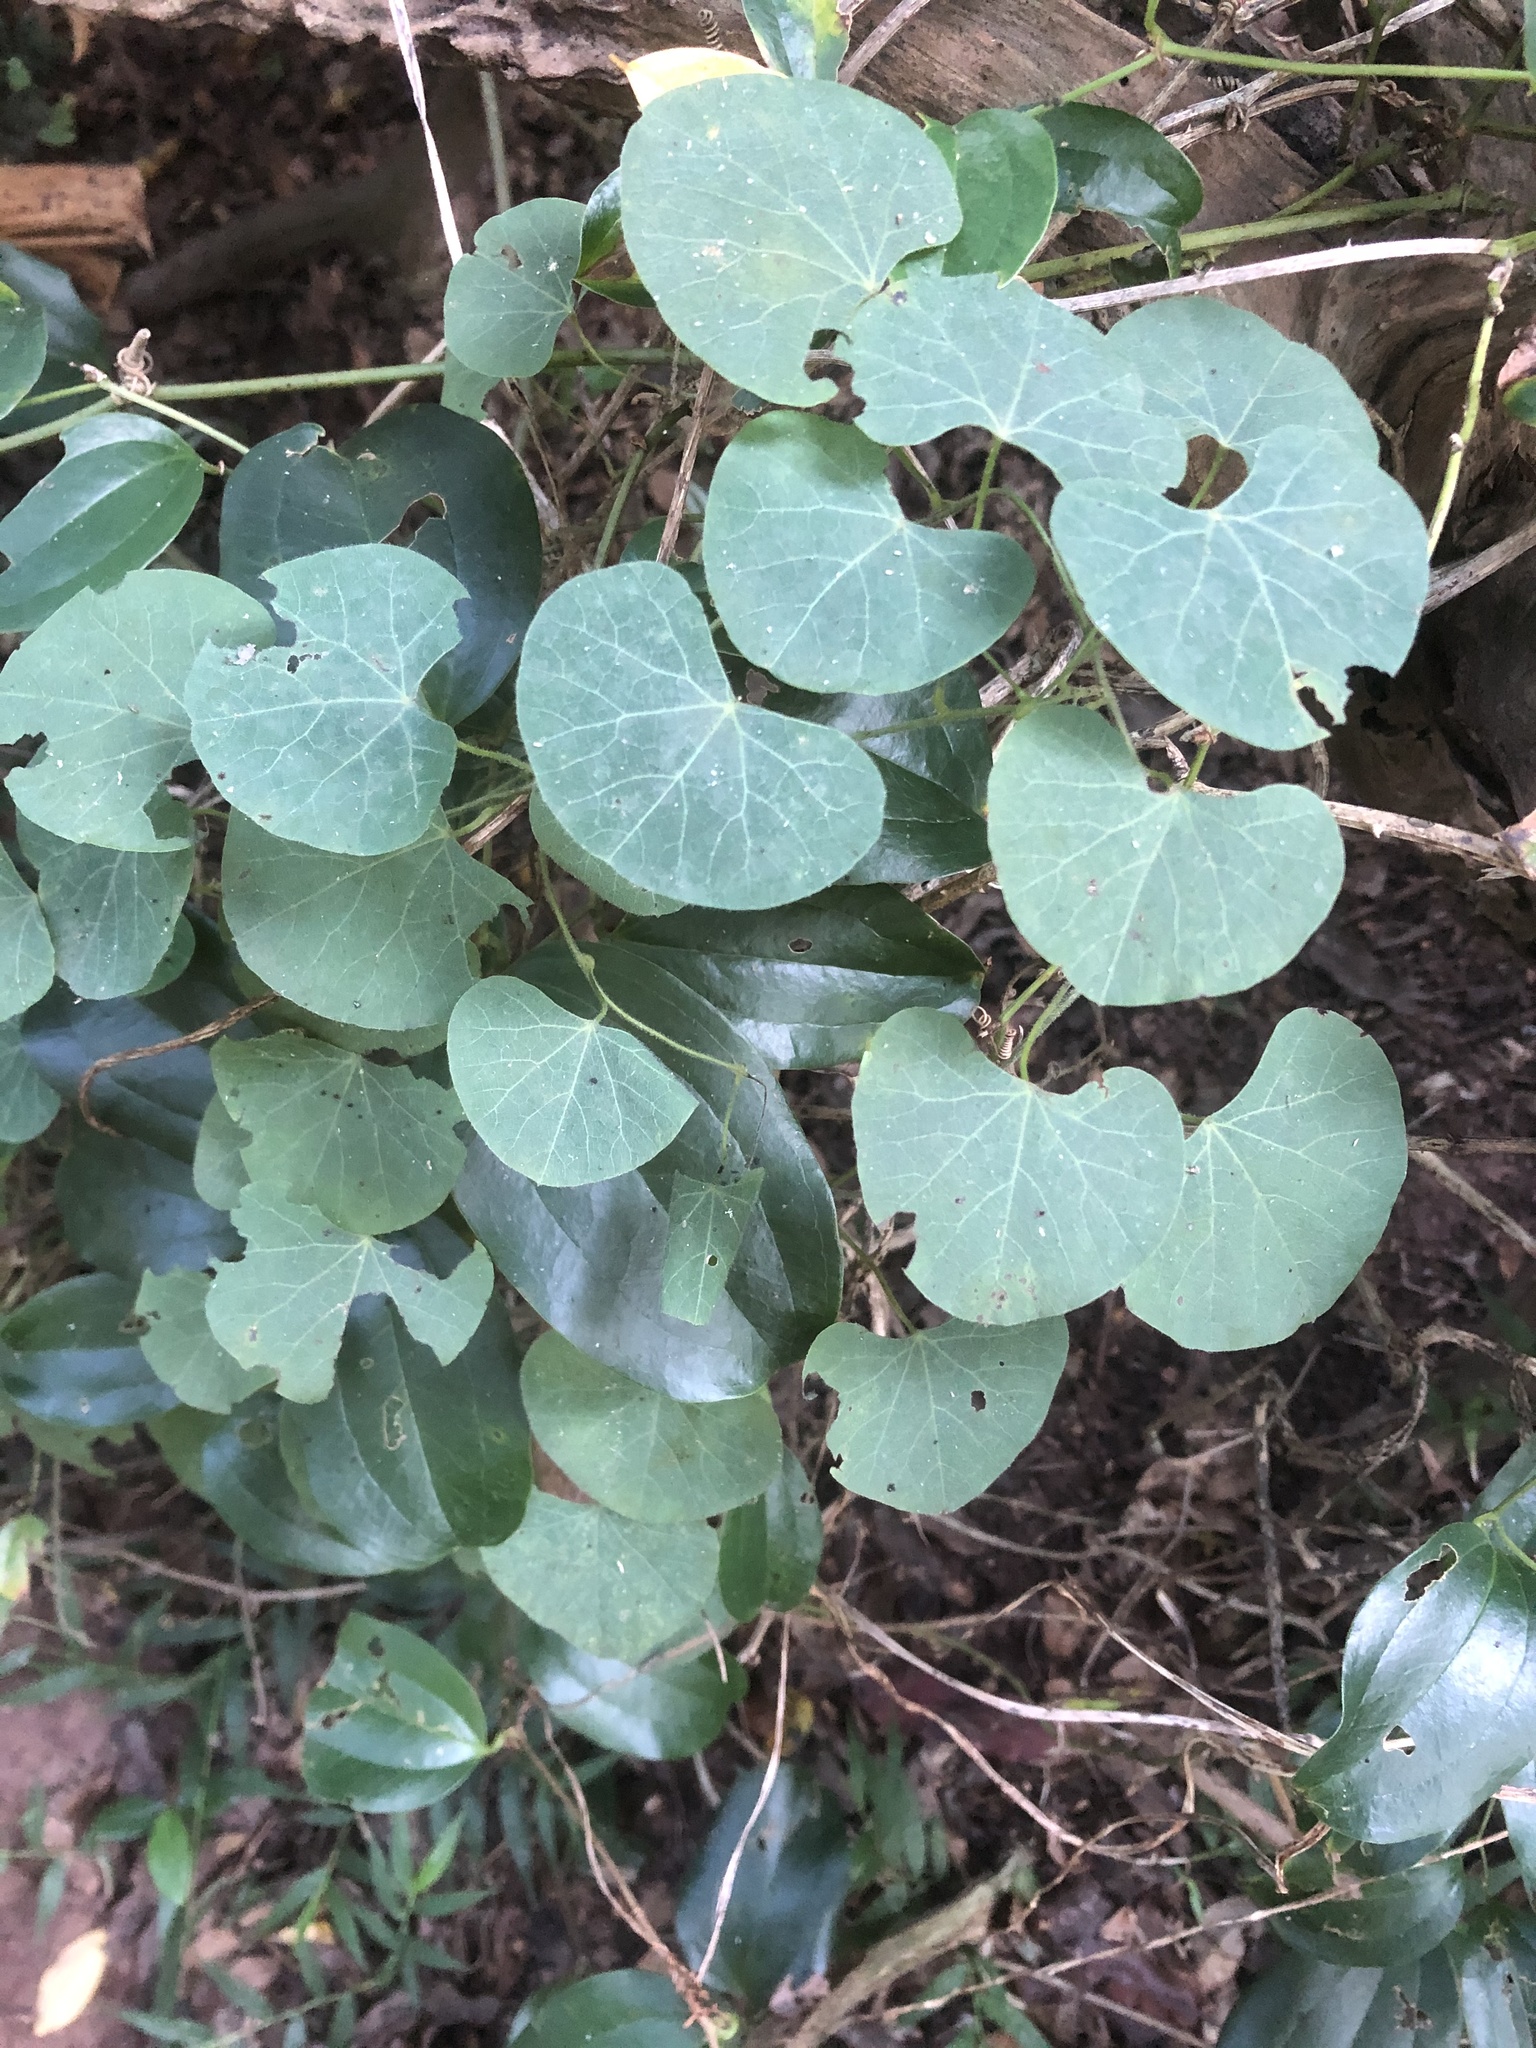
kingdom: Plantae
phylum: Tracheophyta
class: Magnoliopsida
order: Ranunculales
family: Menispermaceae
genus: Cissampelos
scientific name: Cissampelos torulosa
